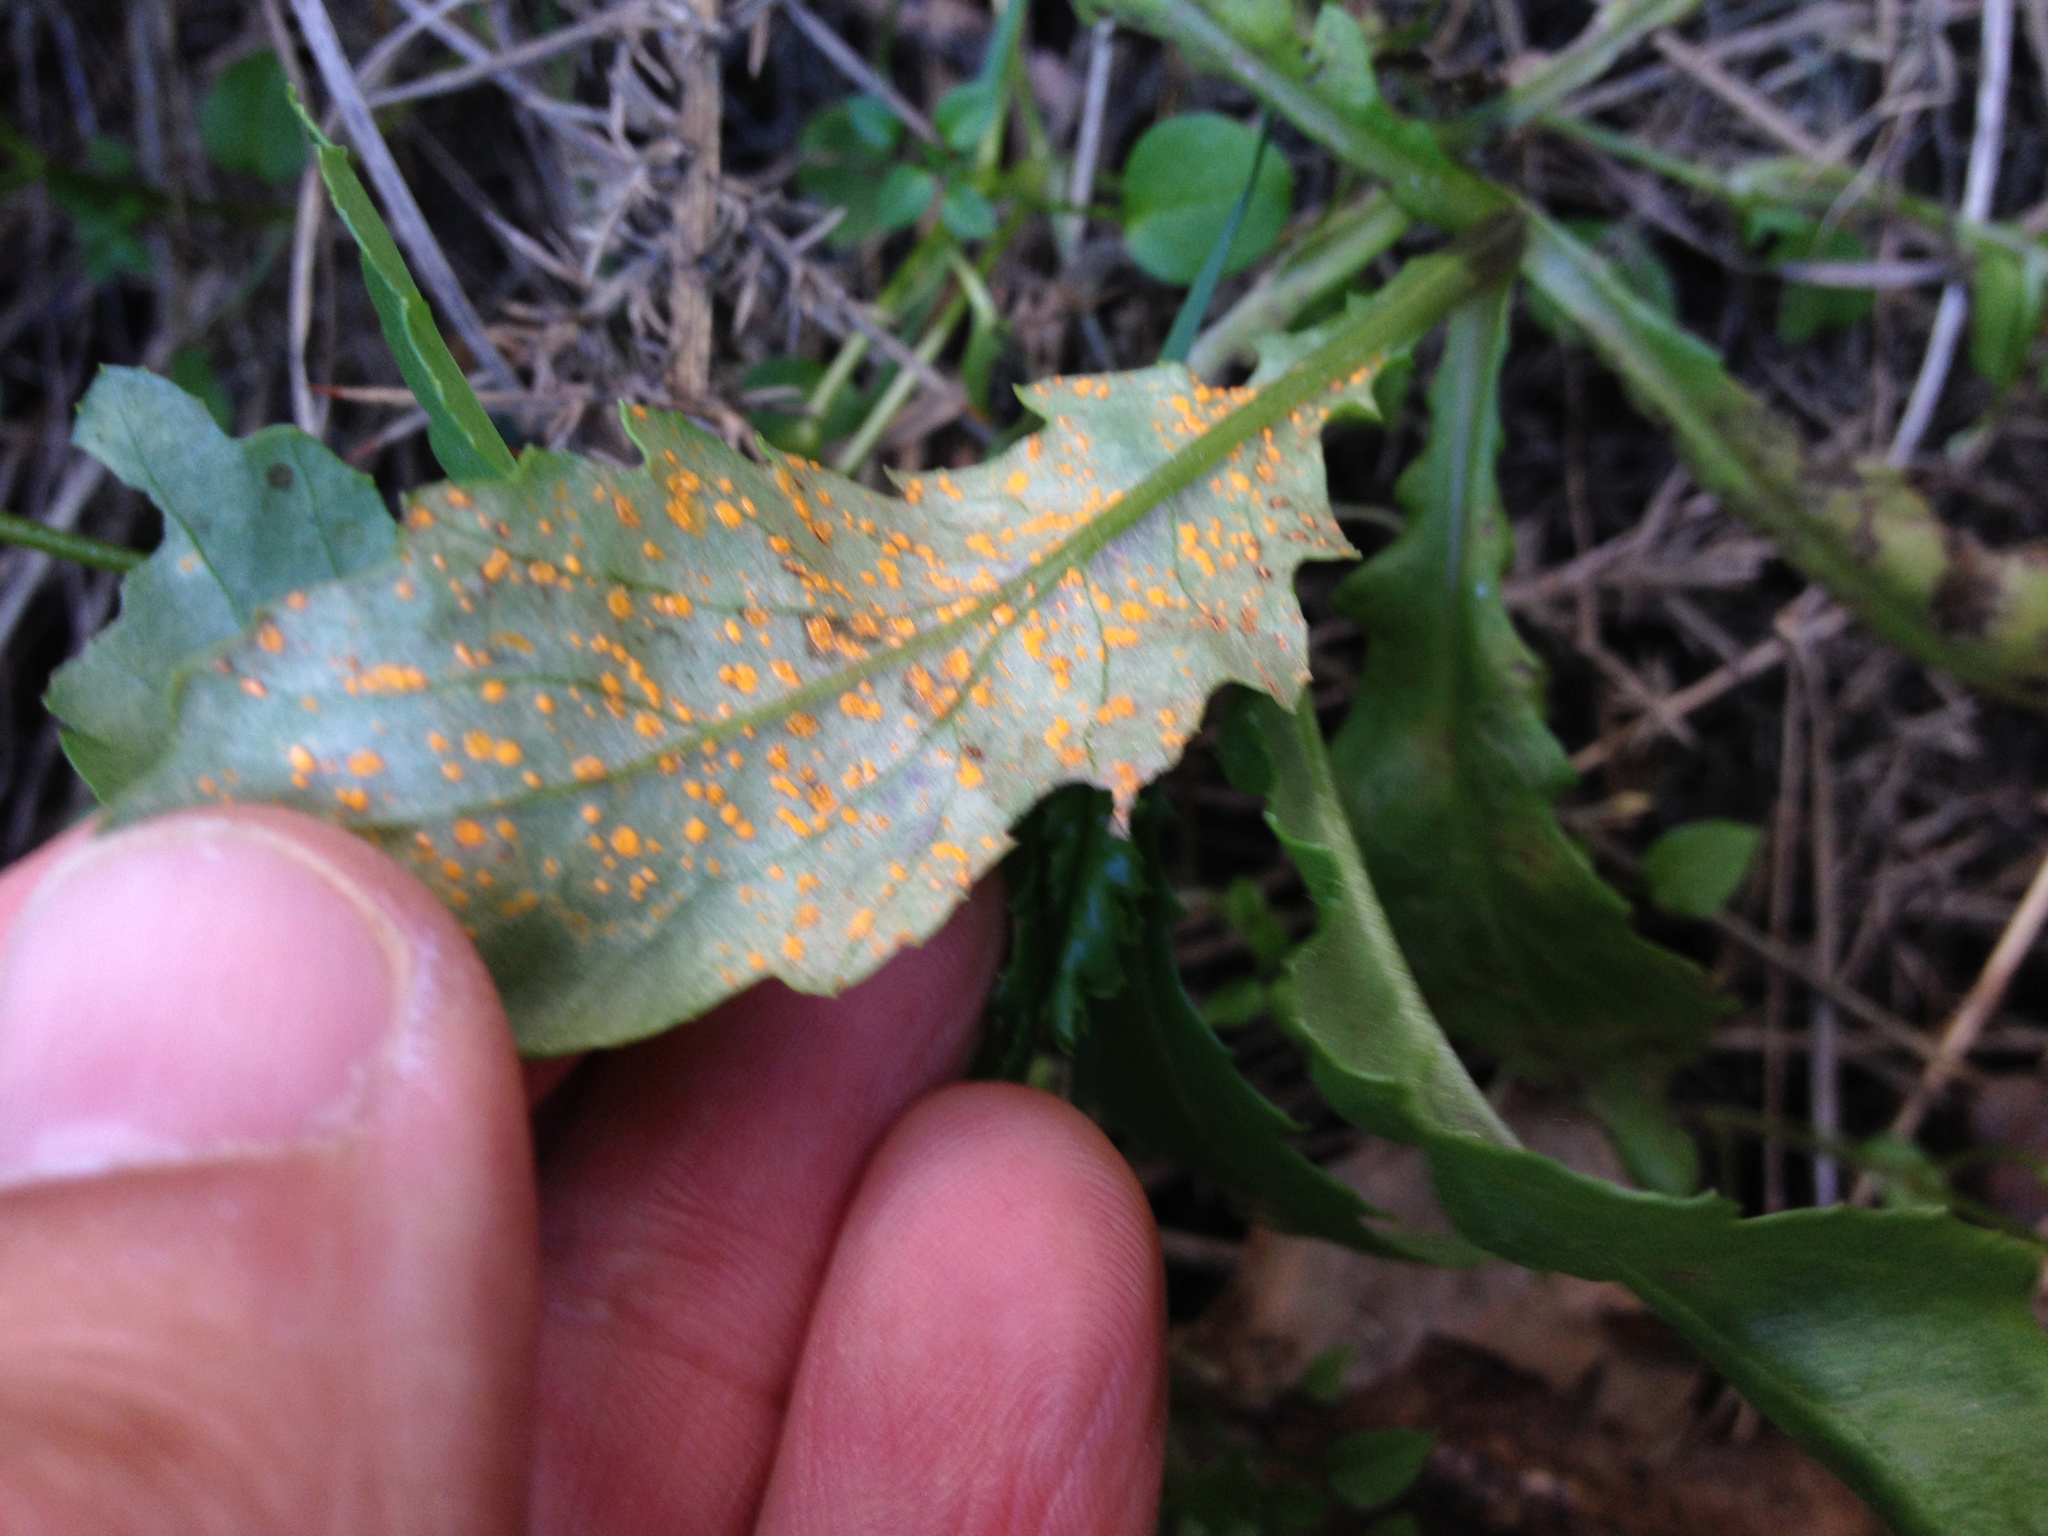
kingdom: Fungi
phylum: Basidiomycota
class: Pucciniomycetes
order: Pucciniales
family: Coleosporiaceae
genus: Coleosporium
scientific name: Coleosporium tussilaginis
